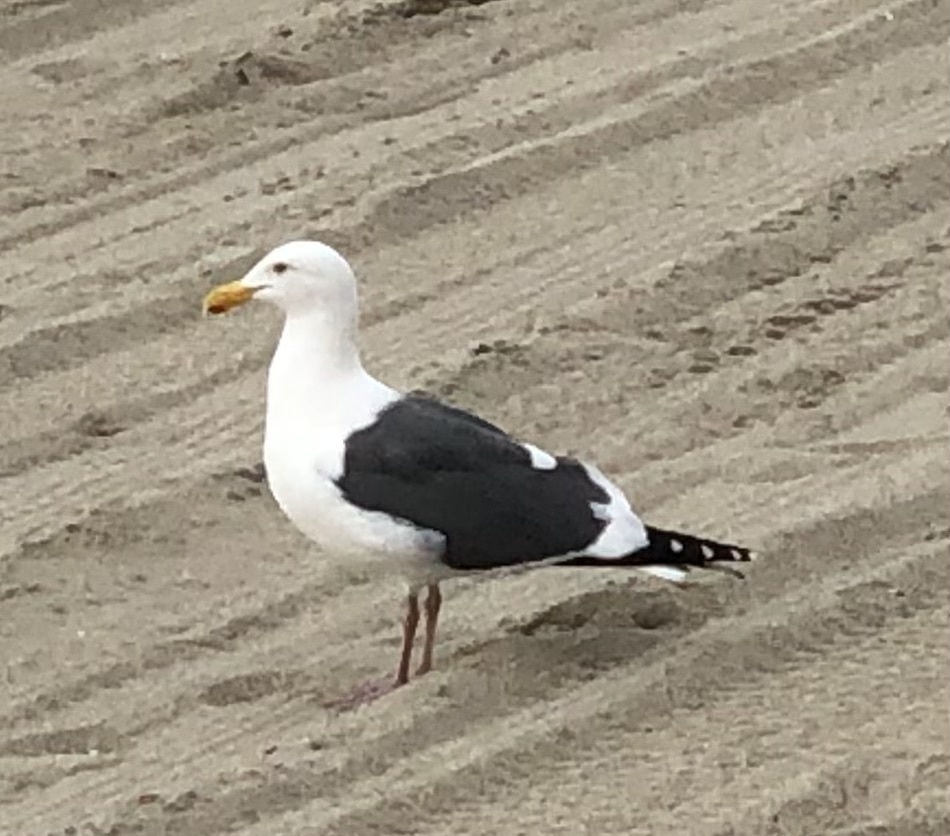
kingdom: Animalia
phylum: Chordata
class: Aves
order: Charadriiformes
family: Laridae
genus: Larus
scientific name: Larus occidentalis
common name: Western gull
